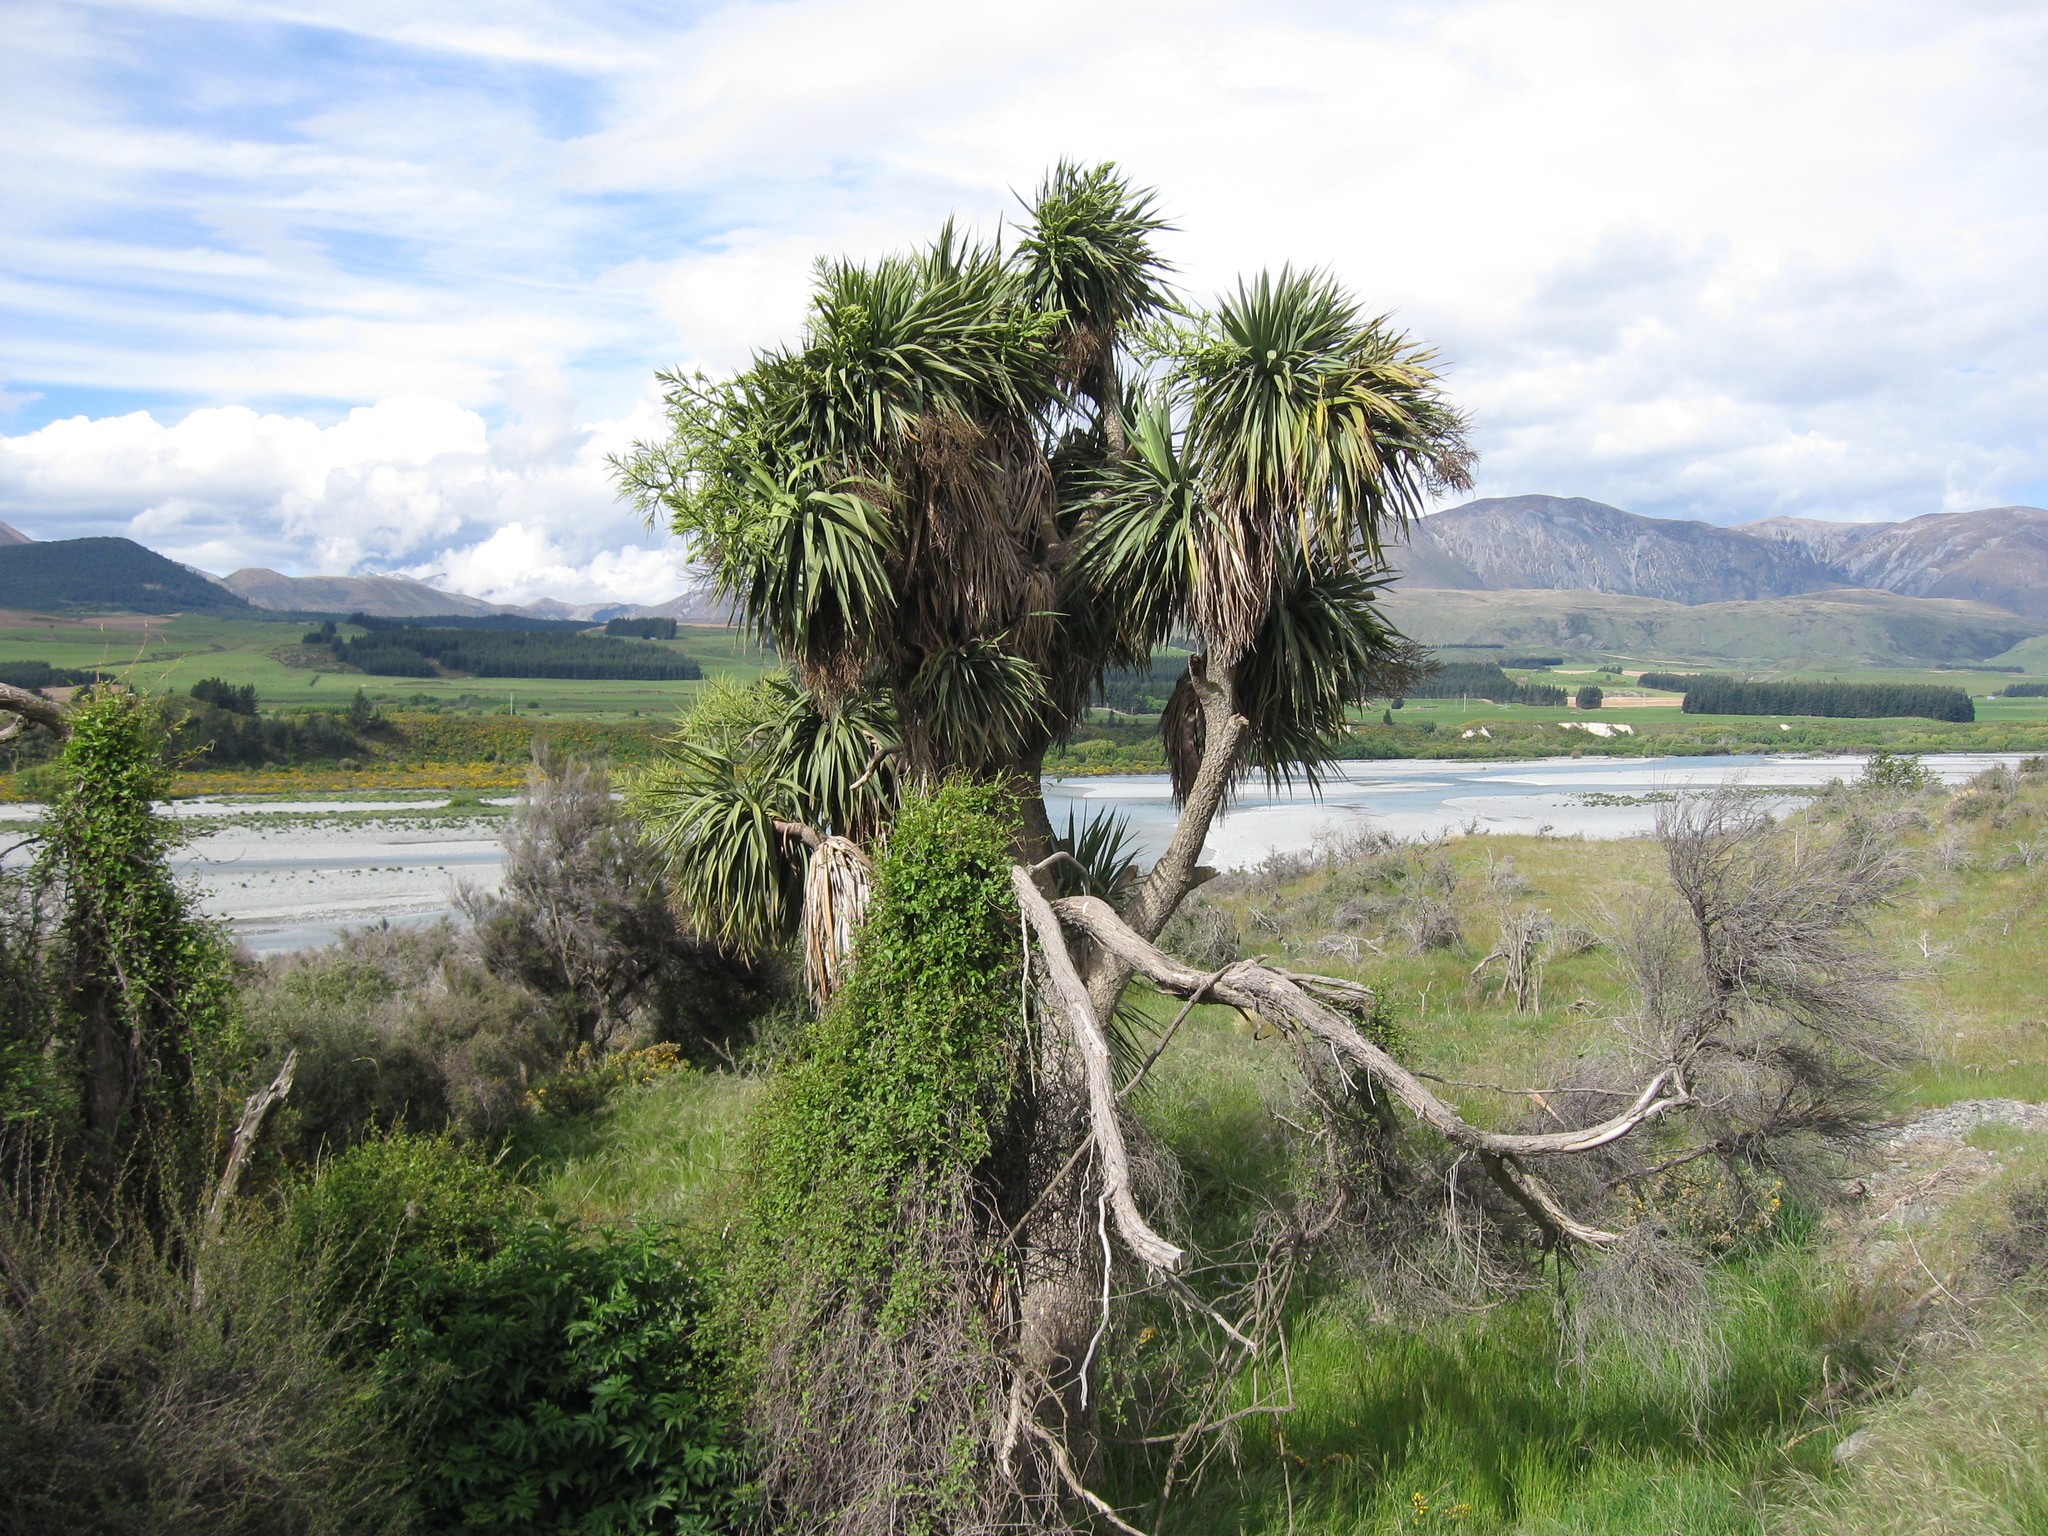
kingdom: Plantae
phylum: Tracheophyta
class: Liliopsida
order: Asparagales
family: Asparagaceae
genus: Cordyline
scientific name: Cordyline australis
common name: Cabbage-palm
